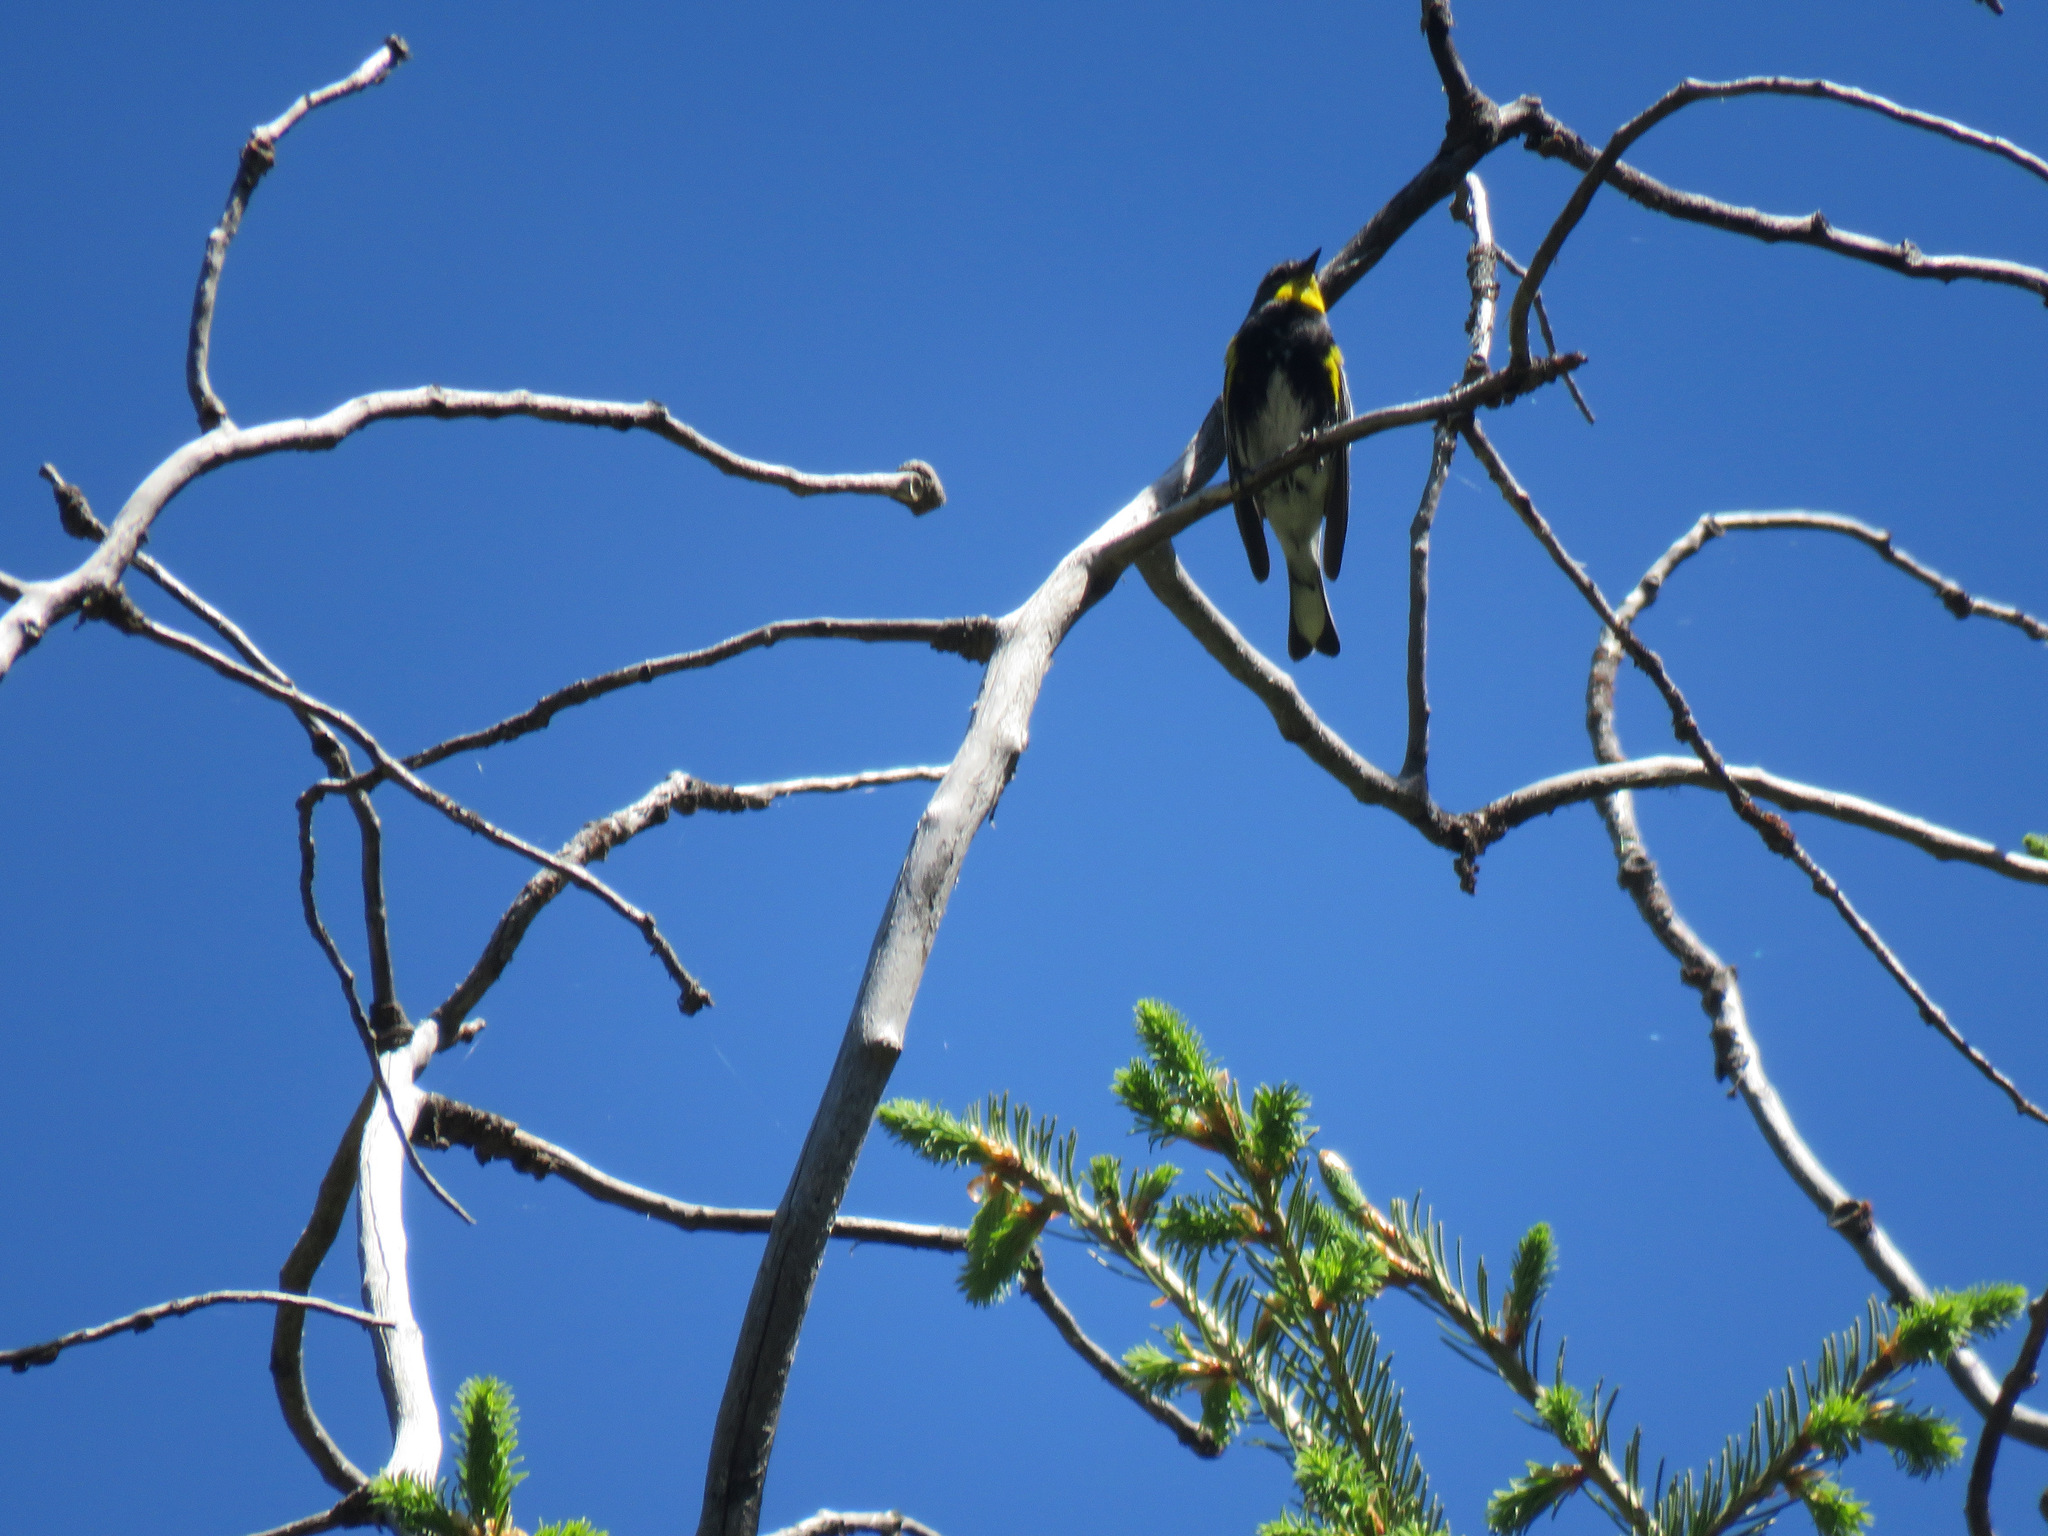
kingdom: Animalia
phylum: Chordata
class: Aves
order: Passeriformes
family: Parulidae
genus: Setophaga
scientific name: Setophaga coronata
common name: Myrtle warbler
